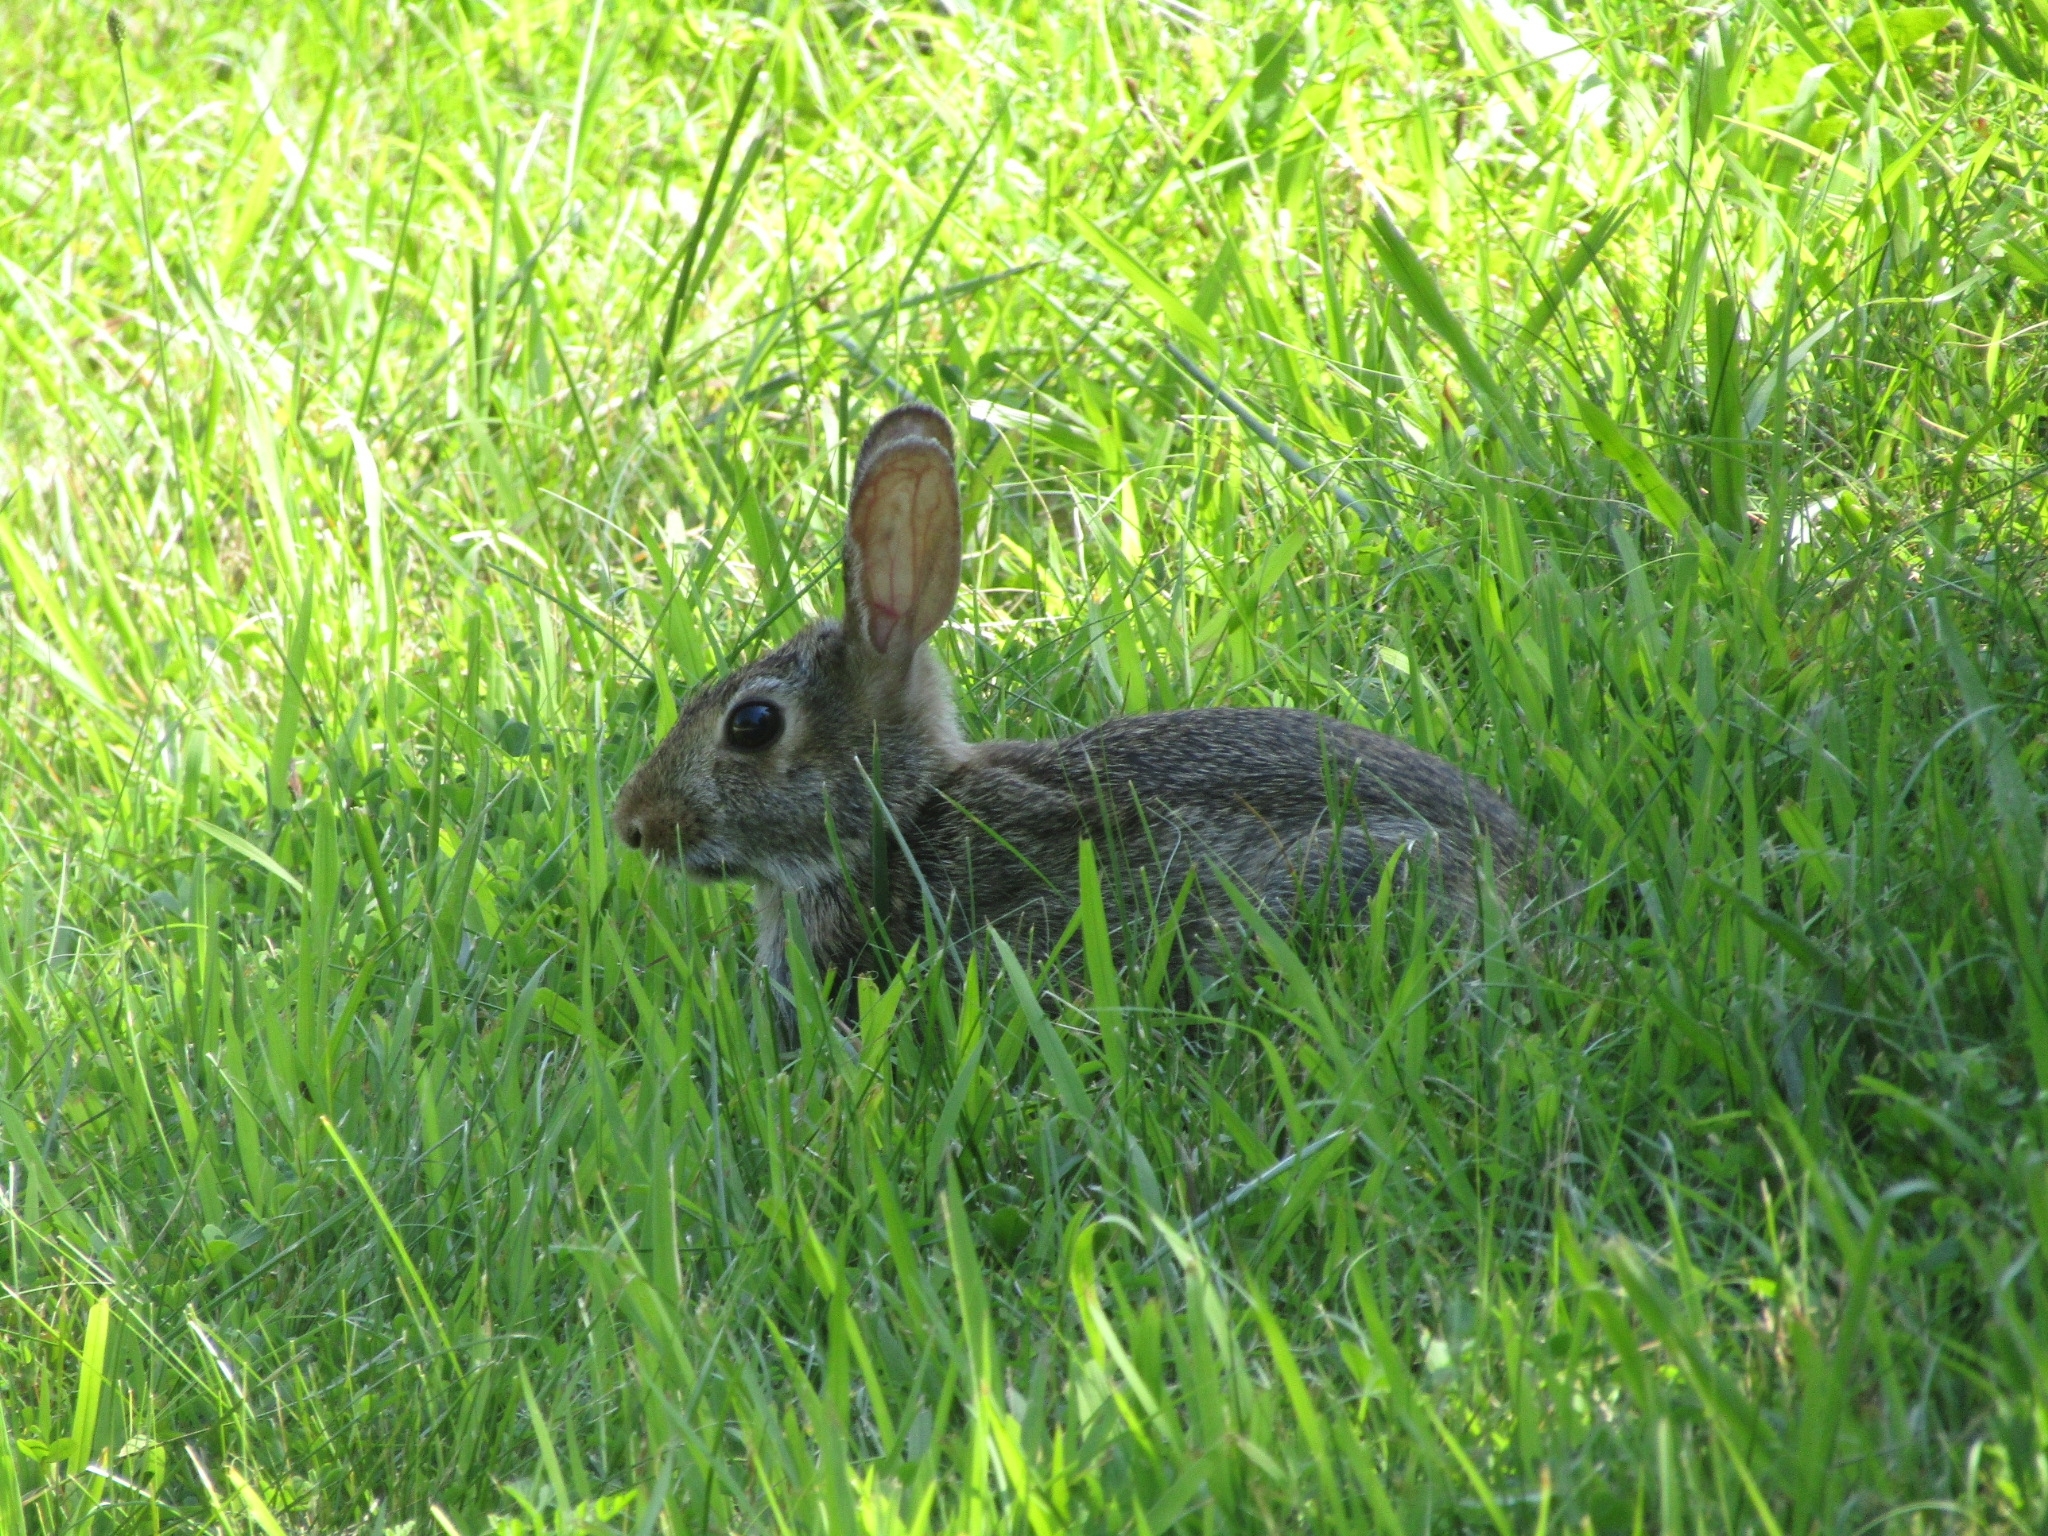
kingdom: Animalia
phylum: Chordata
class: Mammalia
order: Lagomorpha
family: Leporidae
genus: Sylvilagus
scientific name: Sylvilagus floridanus
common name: Eastern cottontail
